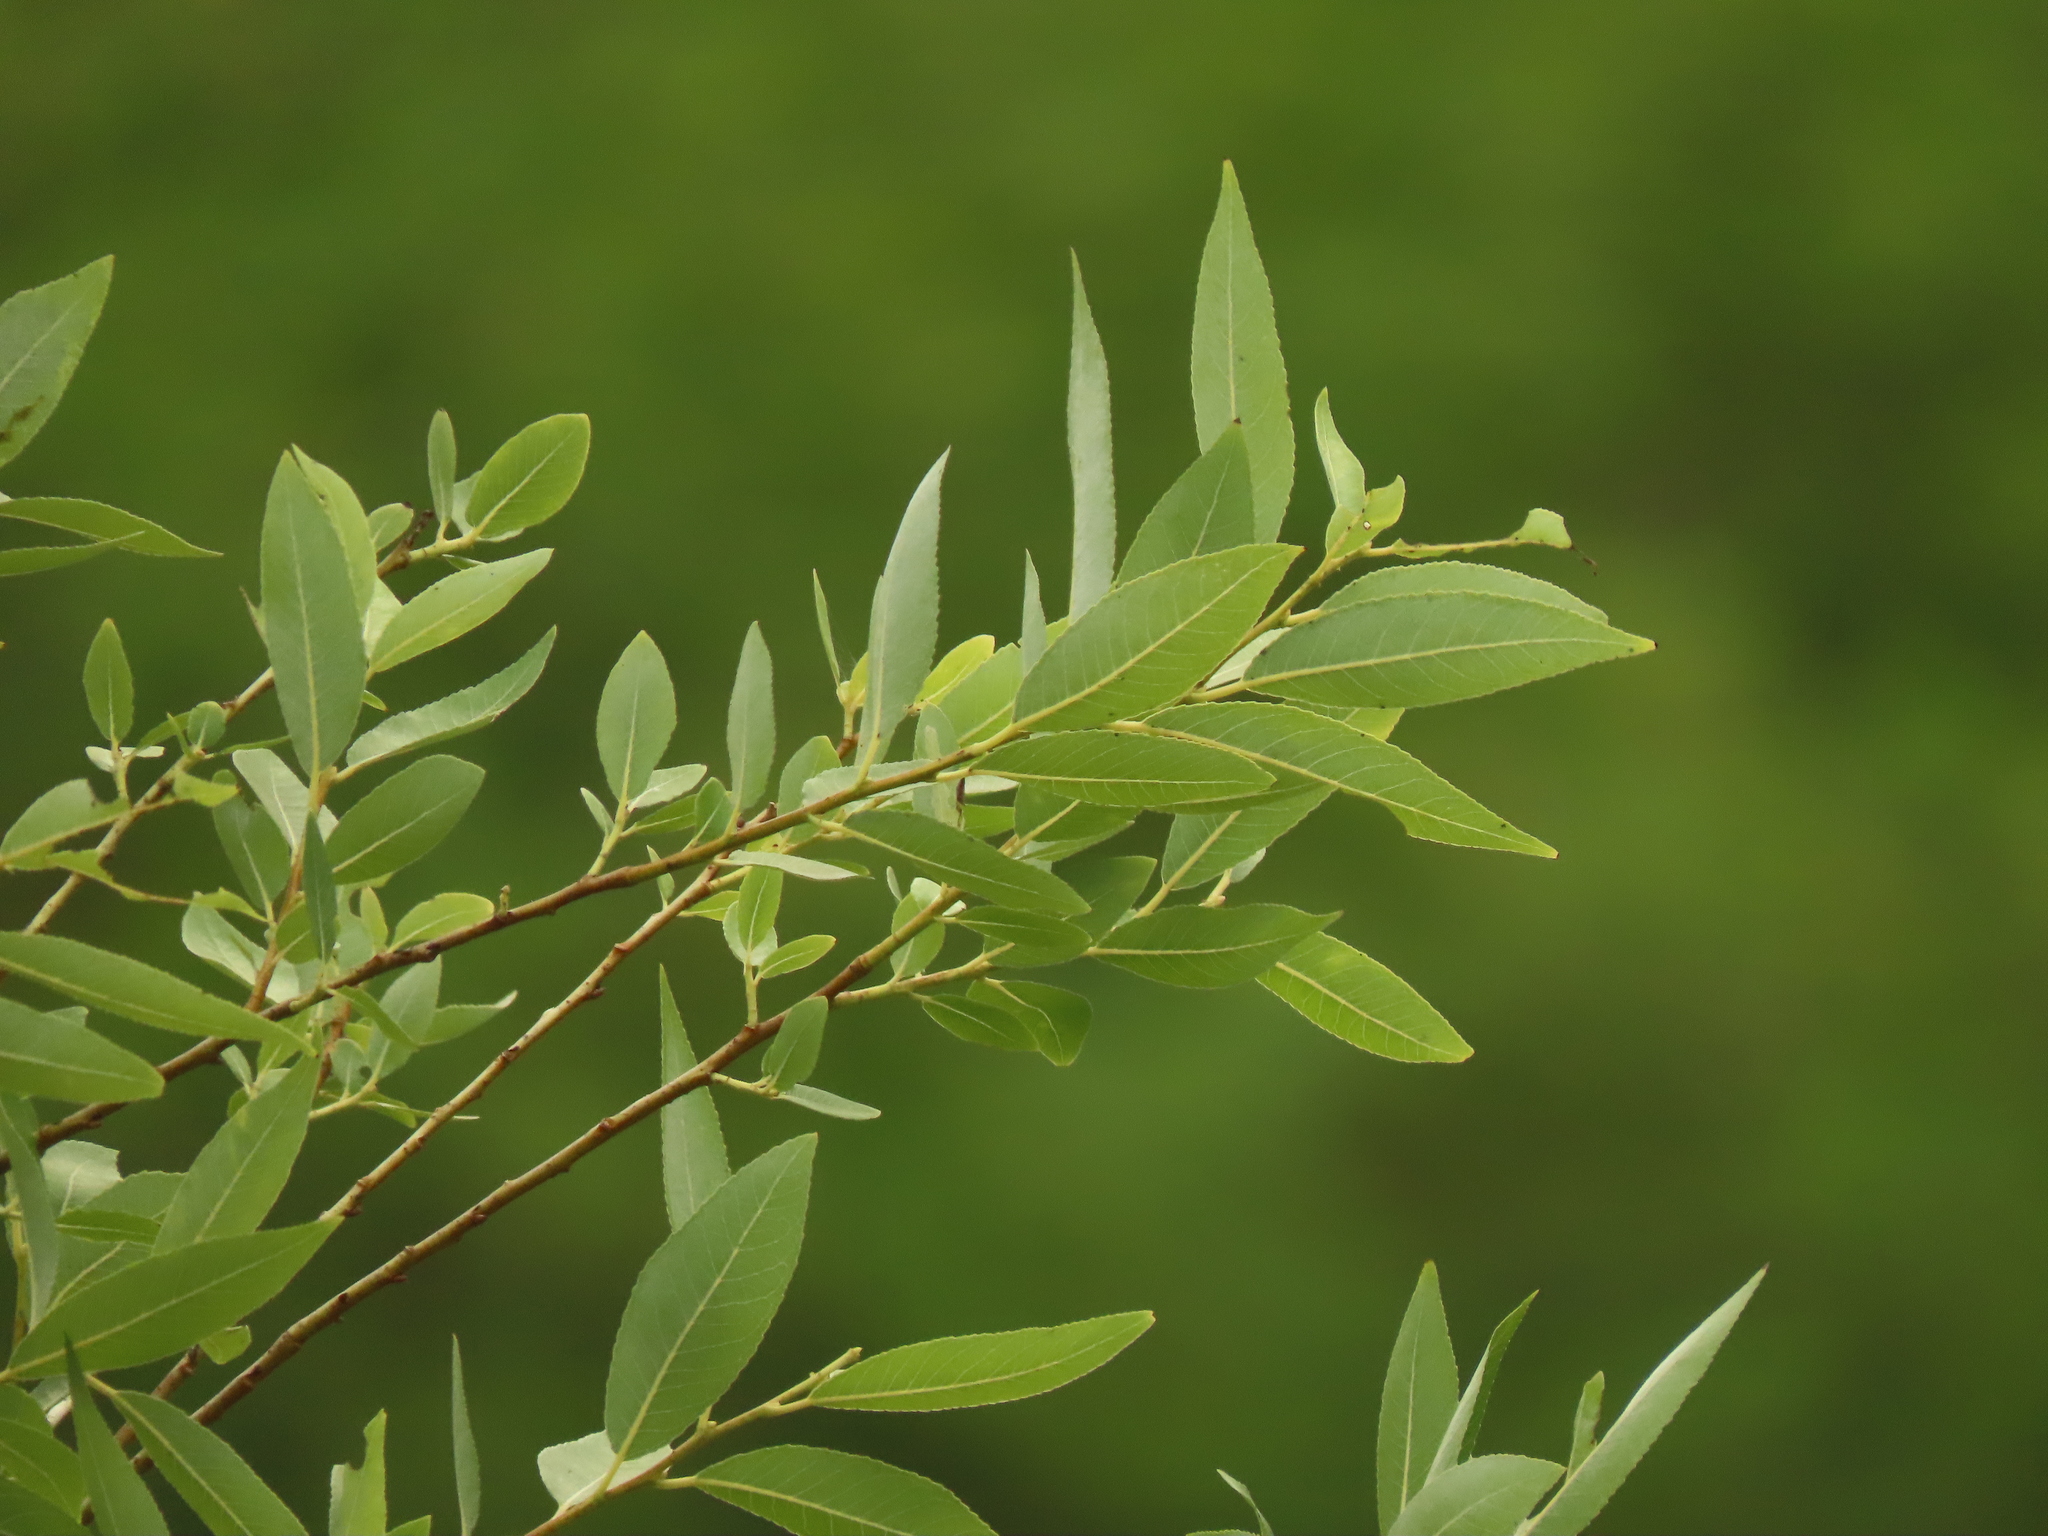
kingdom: Plantae
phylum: Tracheophyta
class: Magnoliopsida
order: Malpighiales
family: Salicaceae
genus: Salix
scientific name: Salix mesnyi
